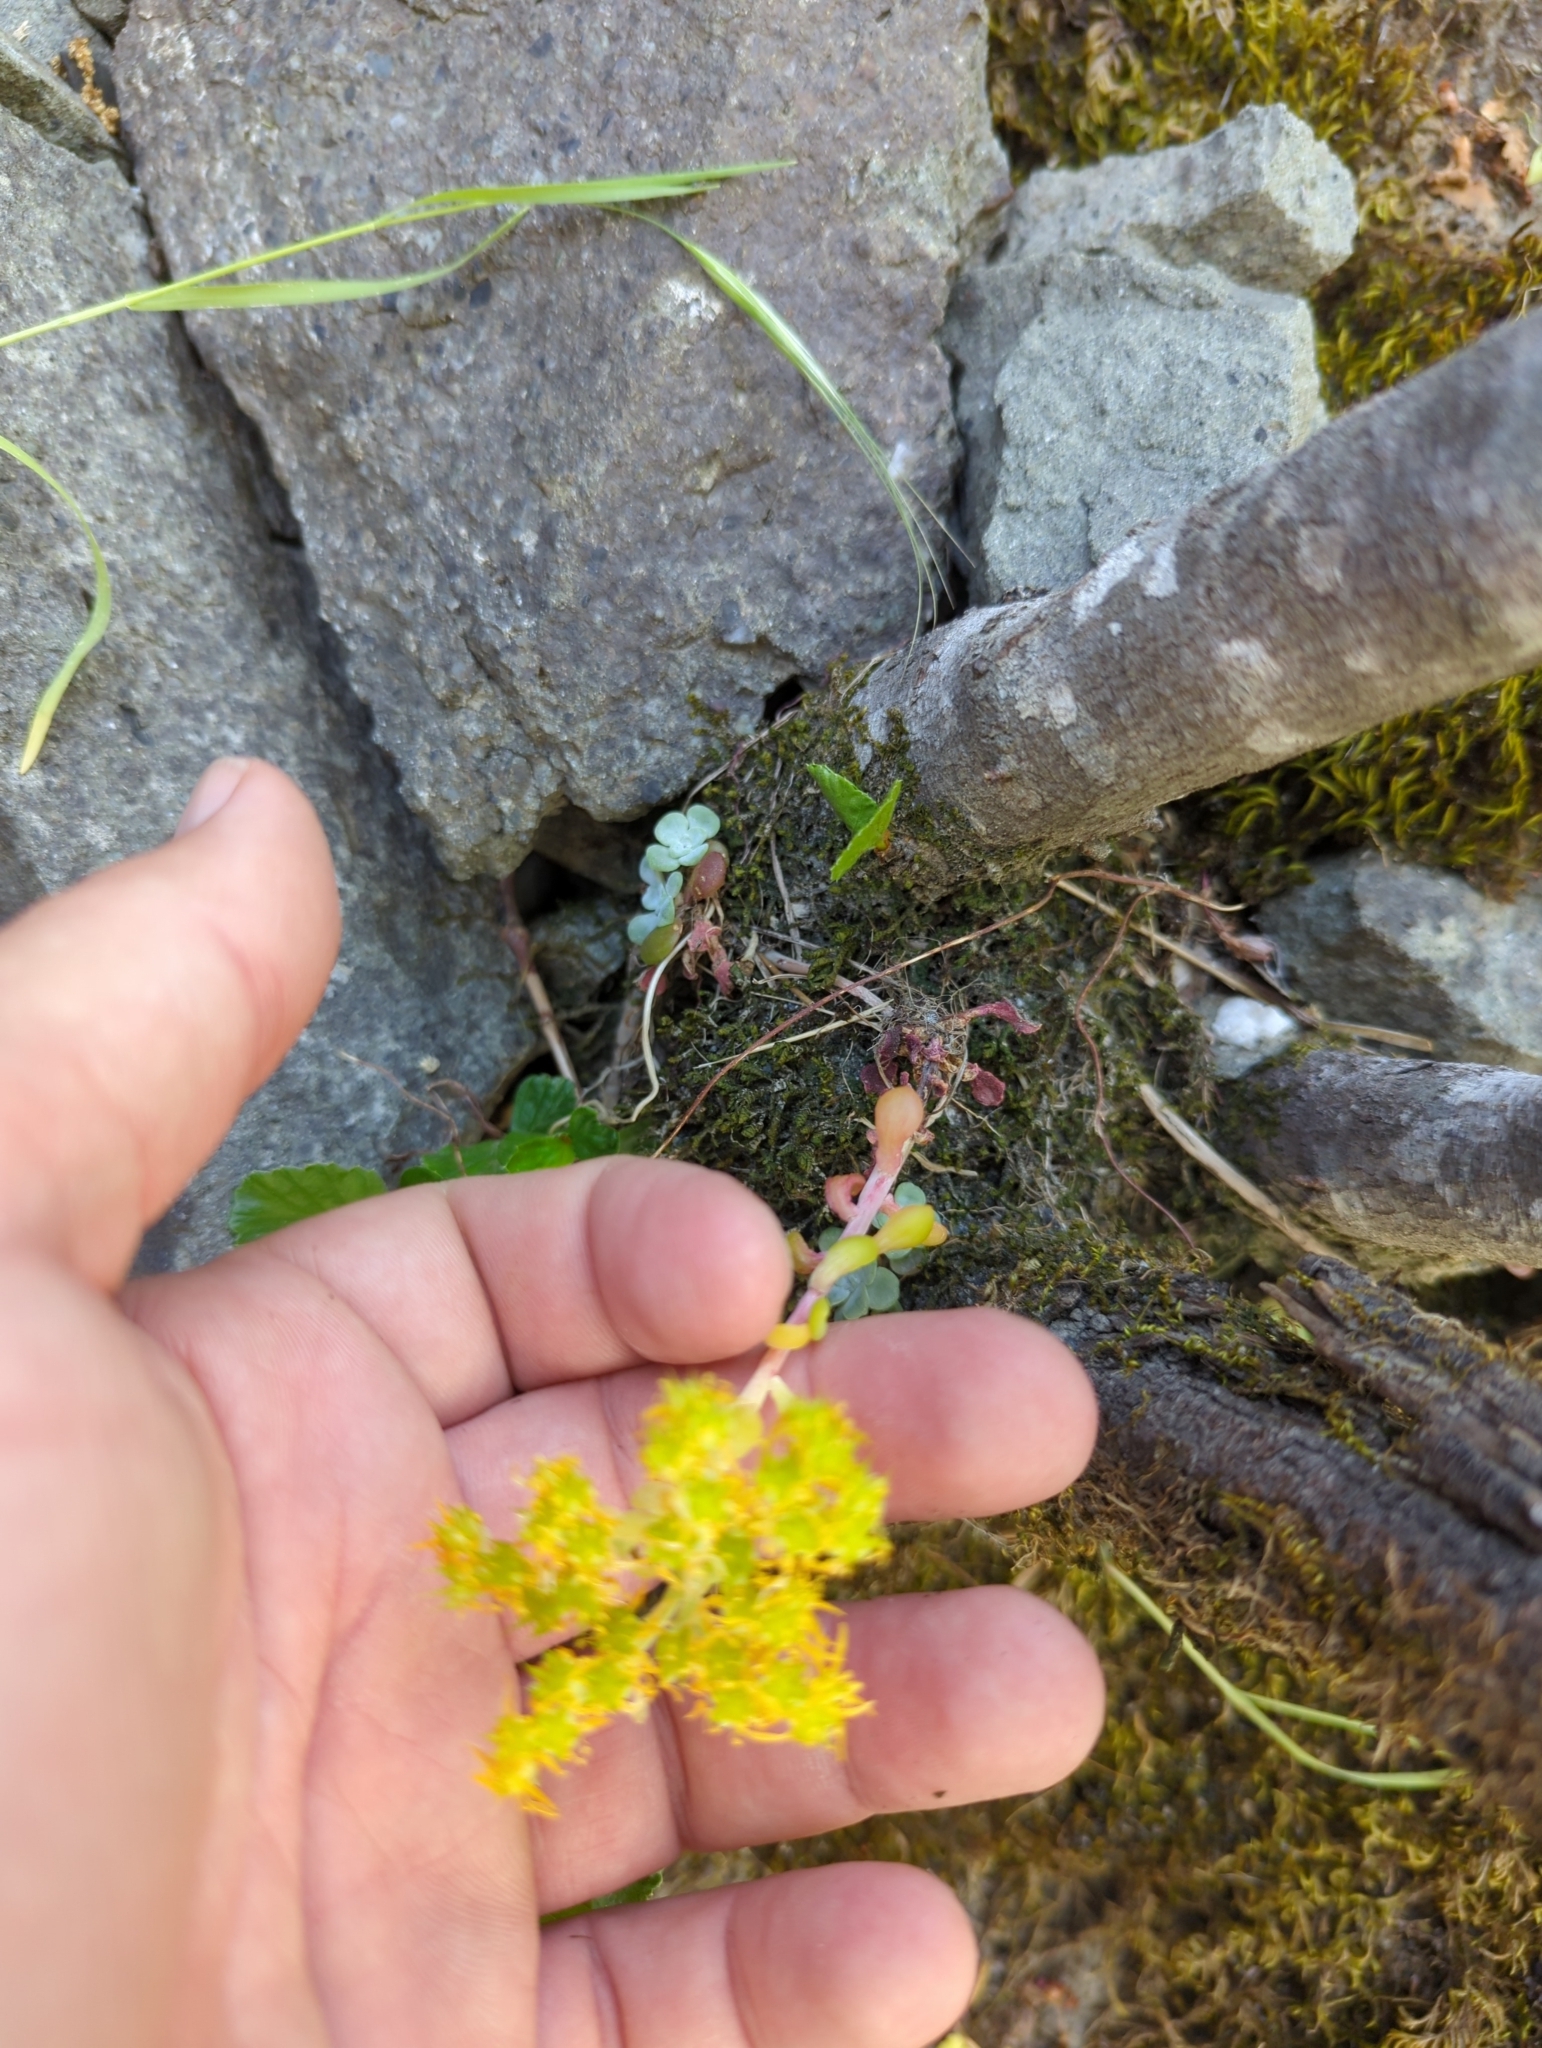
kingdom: Plantae
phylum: Tracheophyta
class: Magnoliopsida
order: Saxifragales
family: Crassulaceae
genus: Sedum
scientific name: Sedum spathulifolium
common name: Colorado stonecrop
